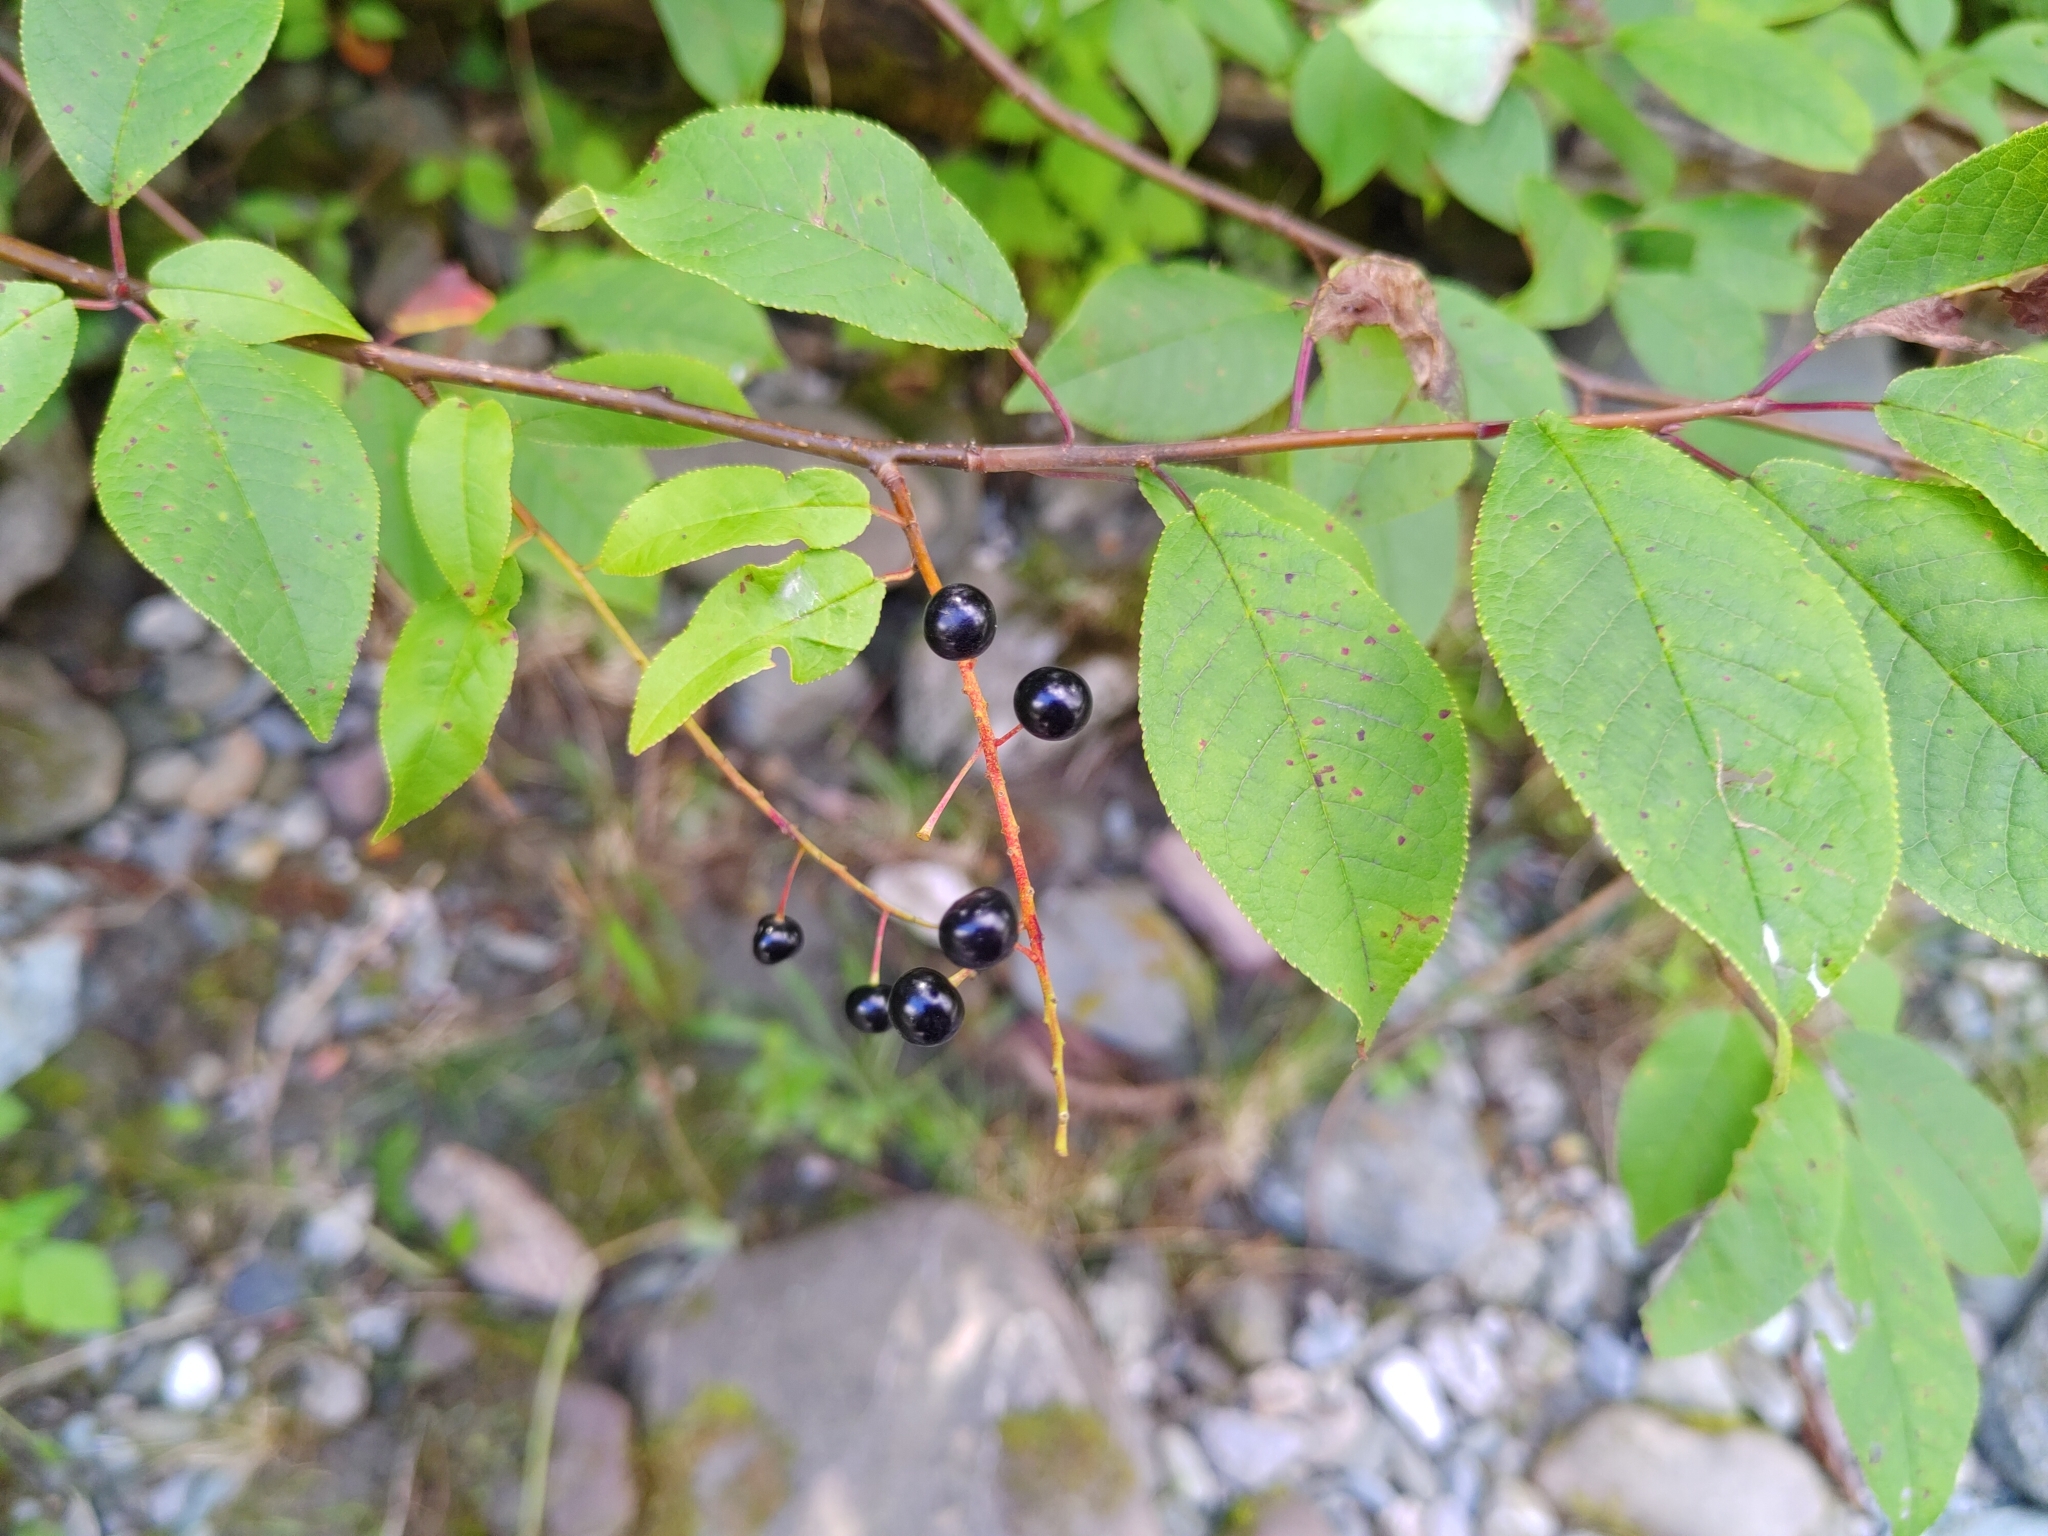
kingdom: Plantae
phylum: Tracheophyta
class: Magnoliopsida
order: Rosales
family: Rosaceae
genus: Prunus
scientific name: Prunus padus
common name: Bird cherry
